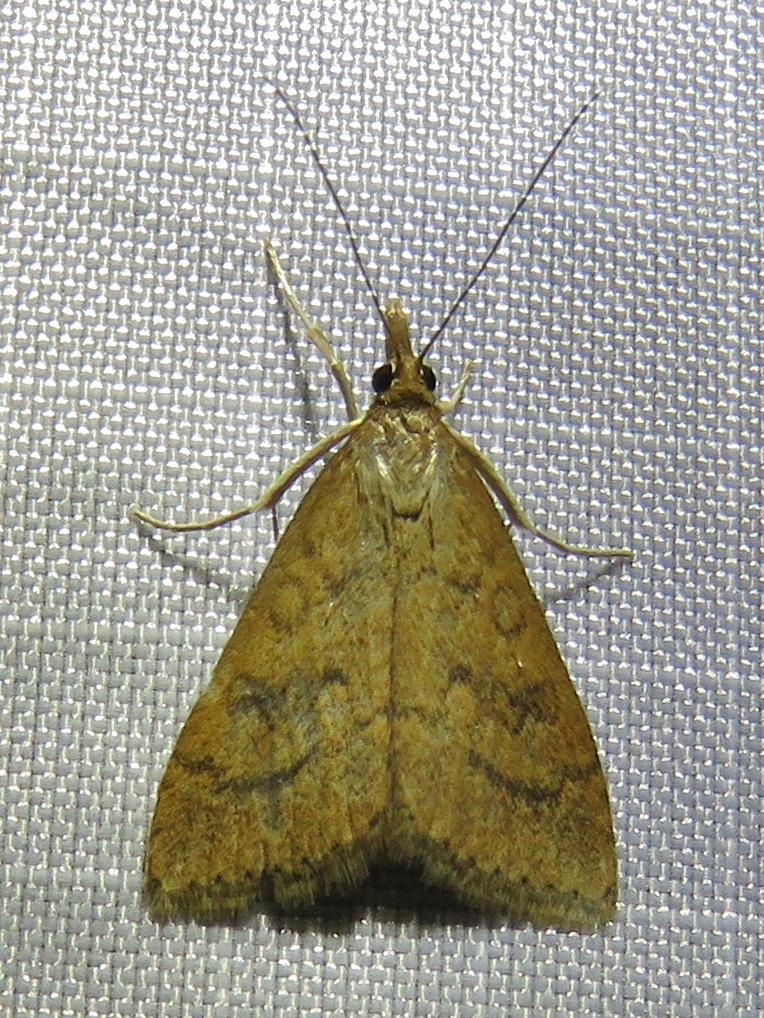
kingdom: Animalia
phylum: Arthropoda
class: Insecta
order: Lepidoptera
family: Crambidae
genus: Udea
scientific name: Udea rubigalis
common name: Celery leaftier moth
